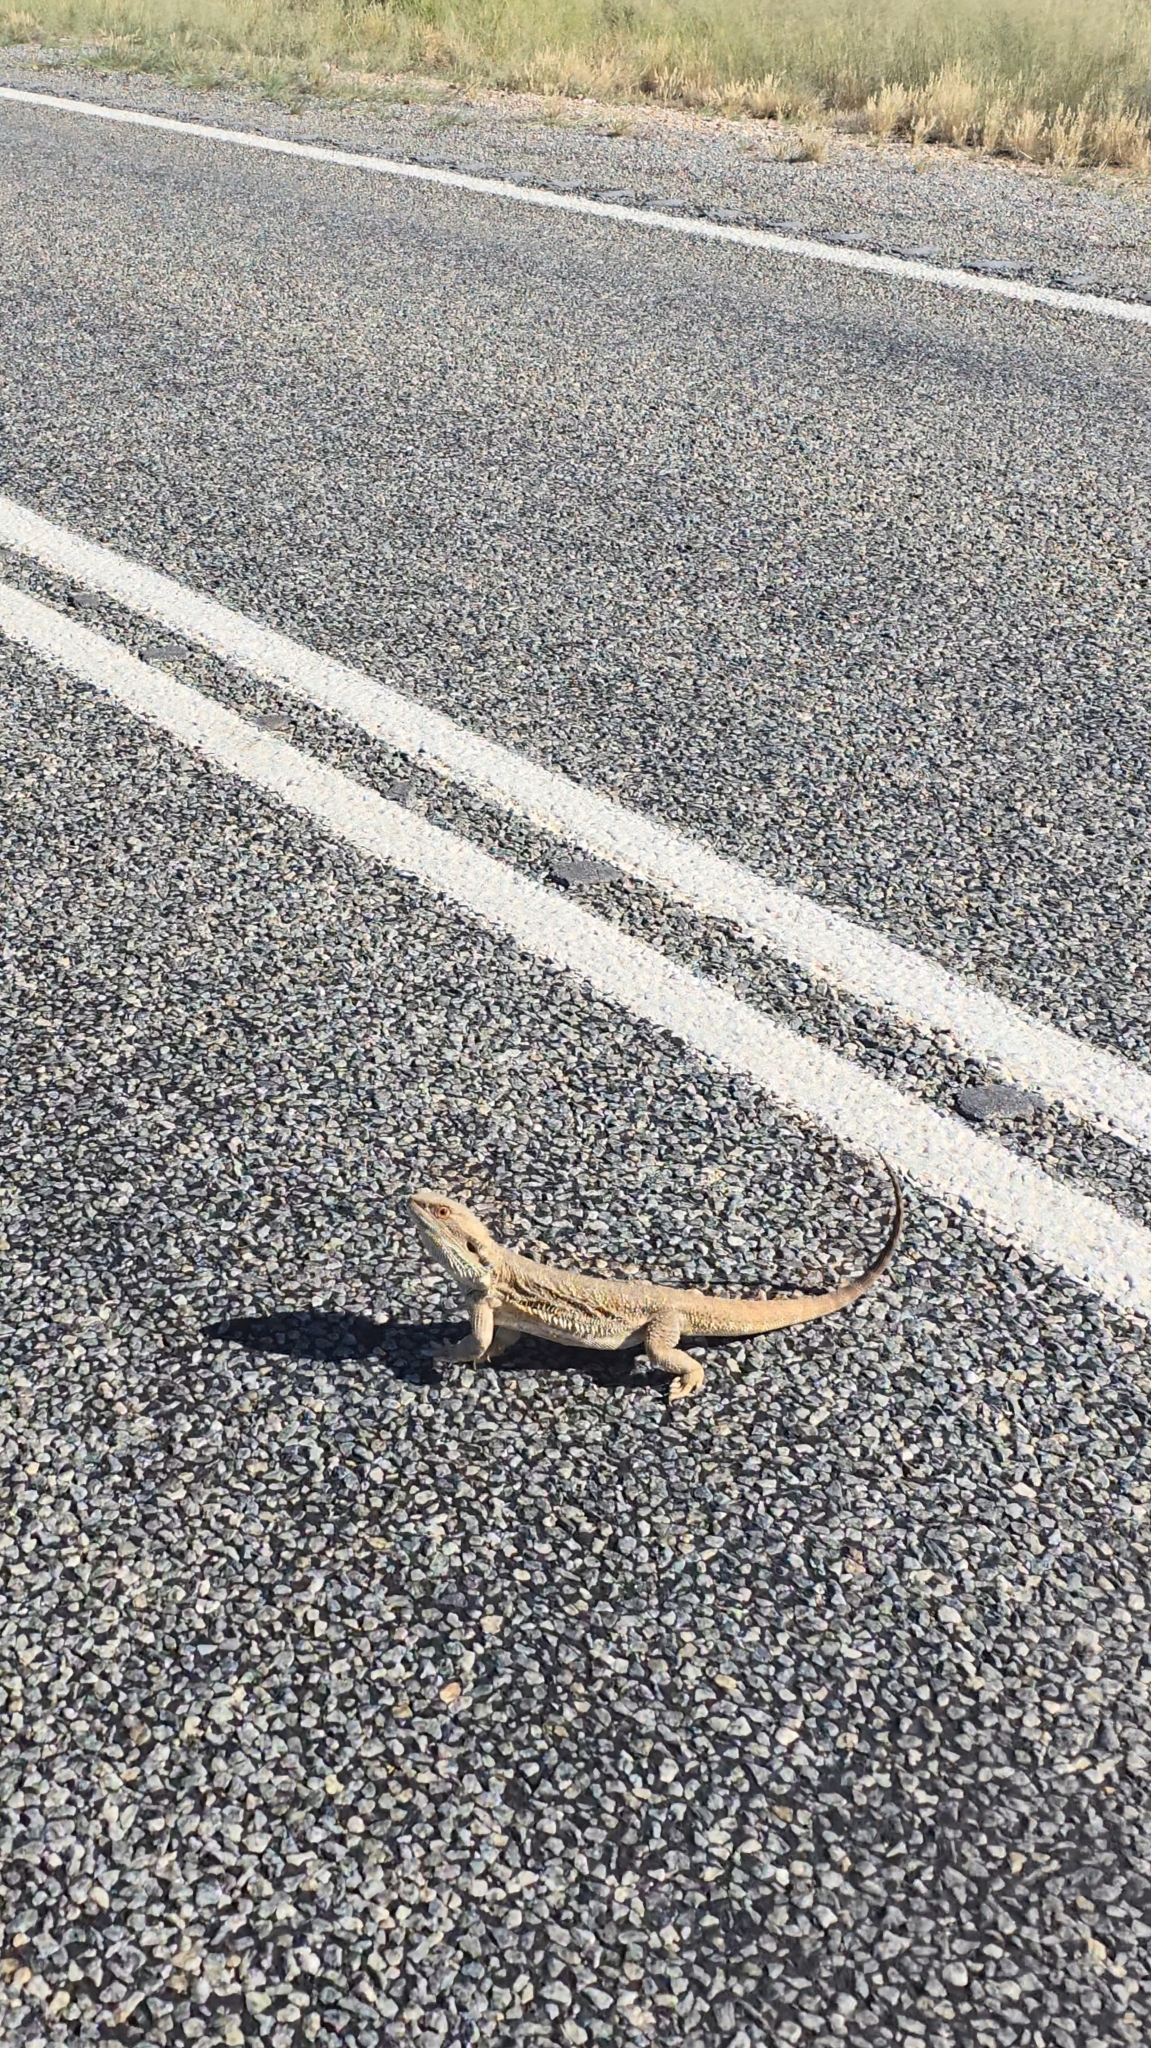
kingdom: Animalia
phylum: Chordata
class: Squamata
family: Agamidae
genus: Pogona
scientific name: Pogona vitticeps
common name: Central bearded dragon
